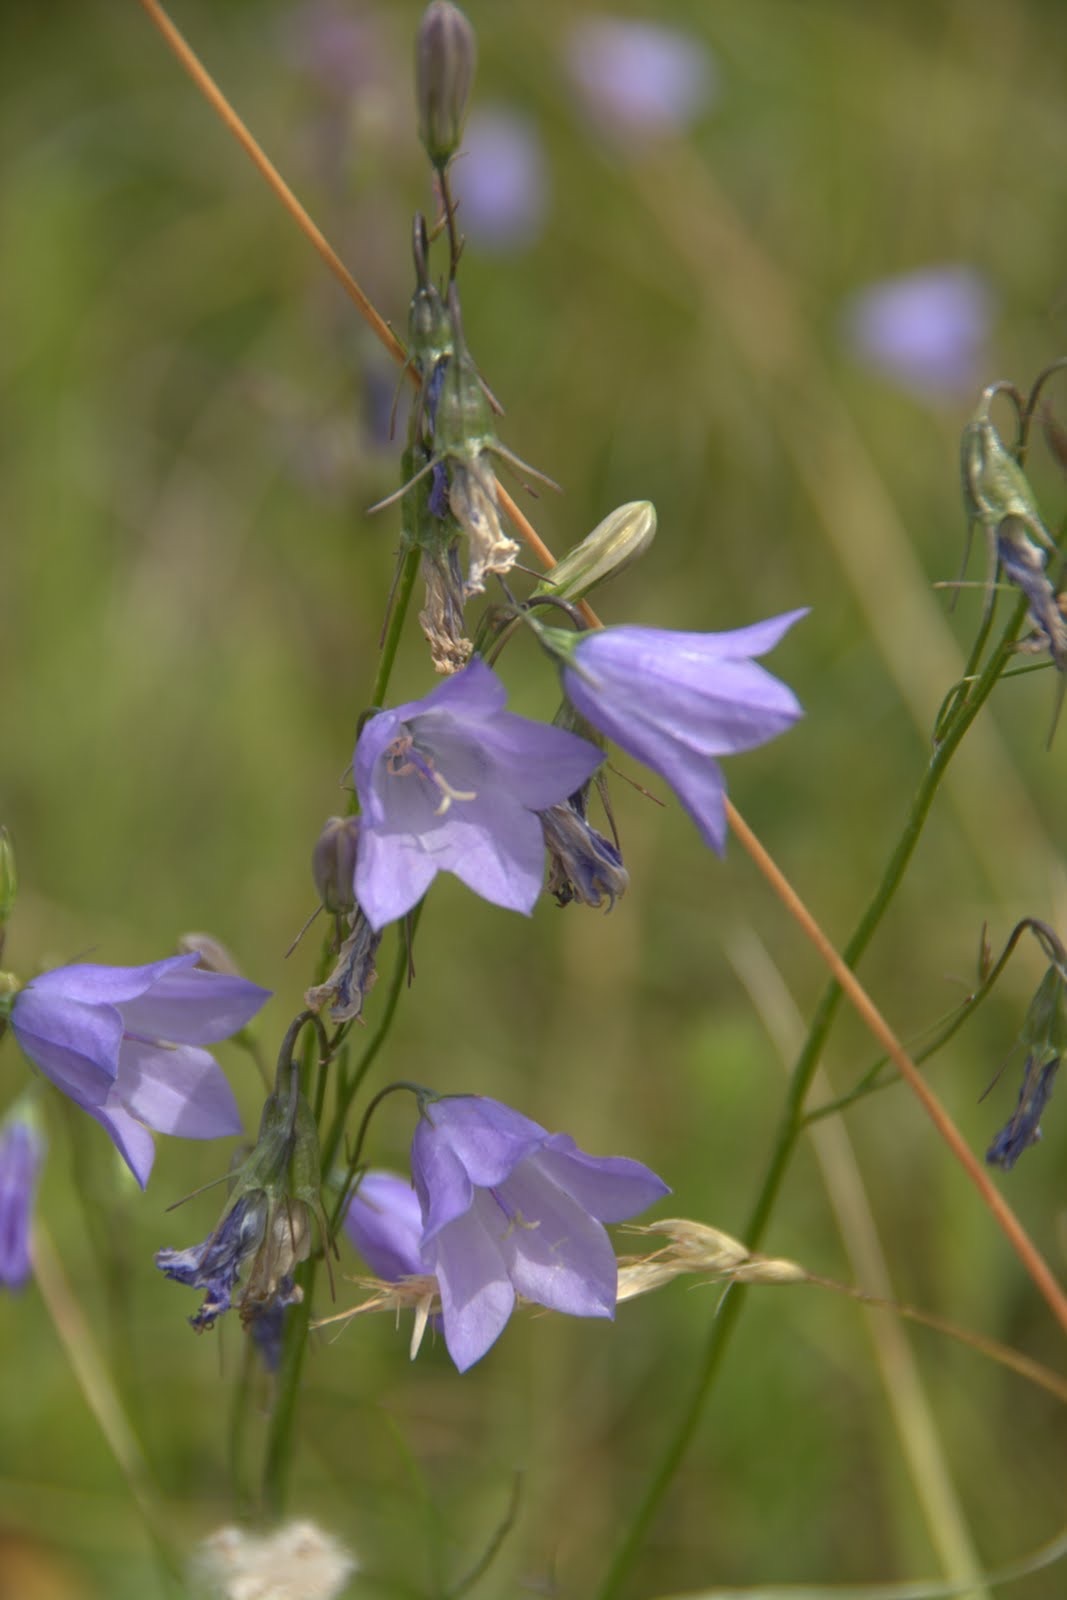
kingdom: Plantae
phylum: Tracheophyta
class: Magnoliopsida
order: Asterales
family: Campanulaceae
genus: Campanula
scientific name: Campanula alaskana
